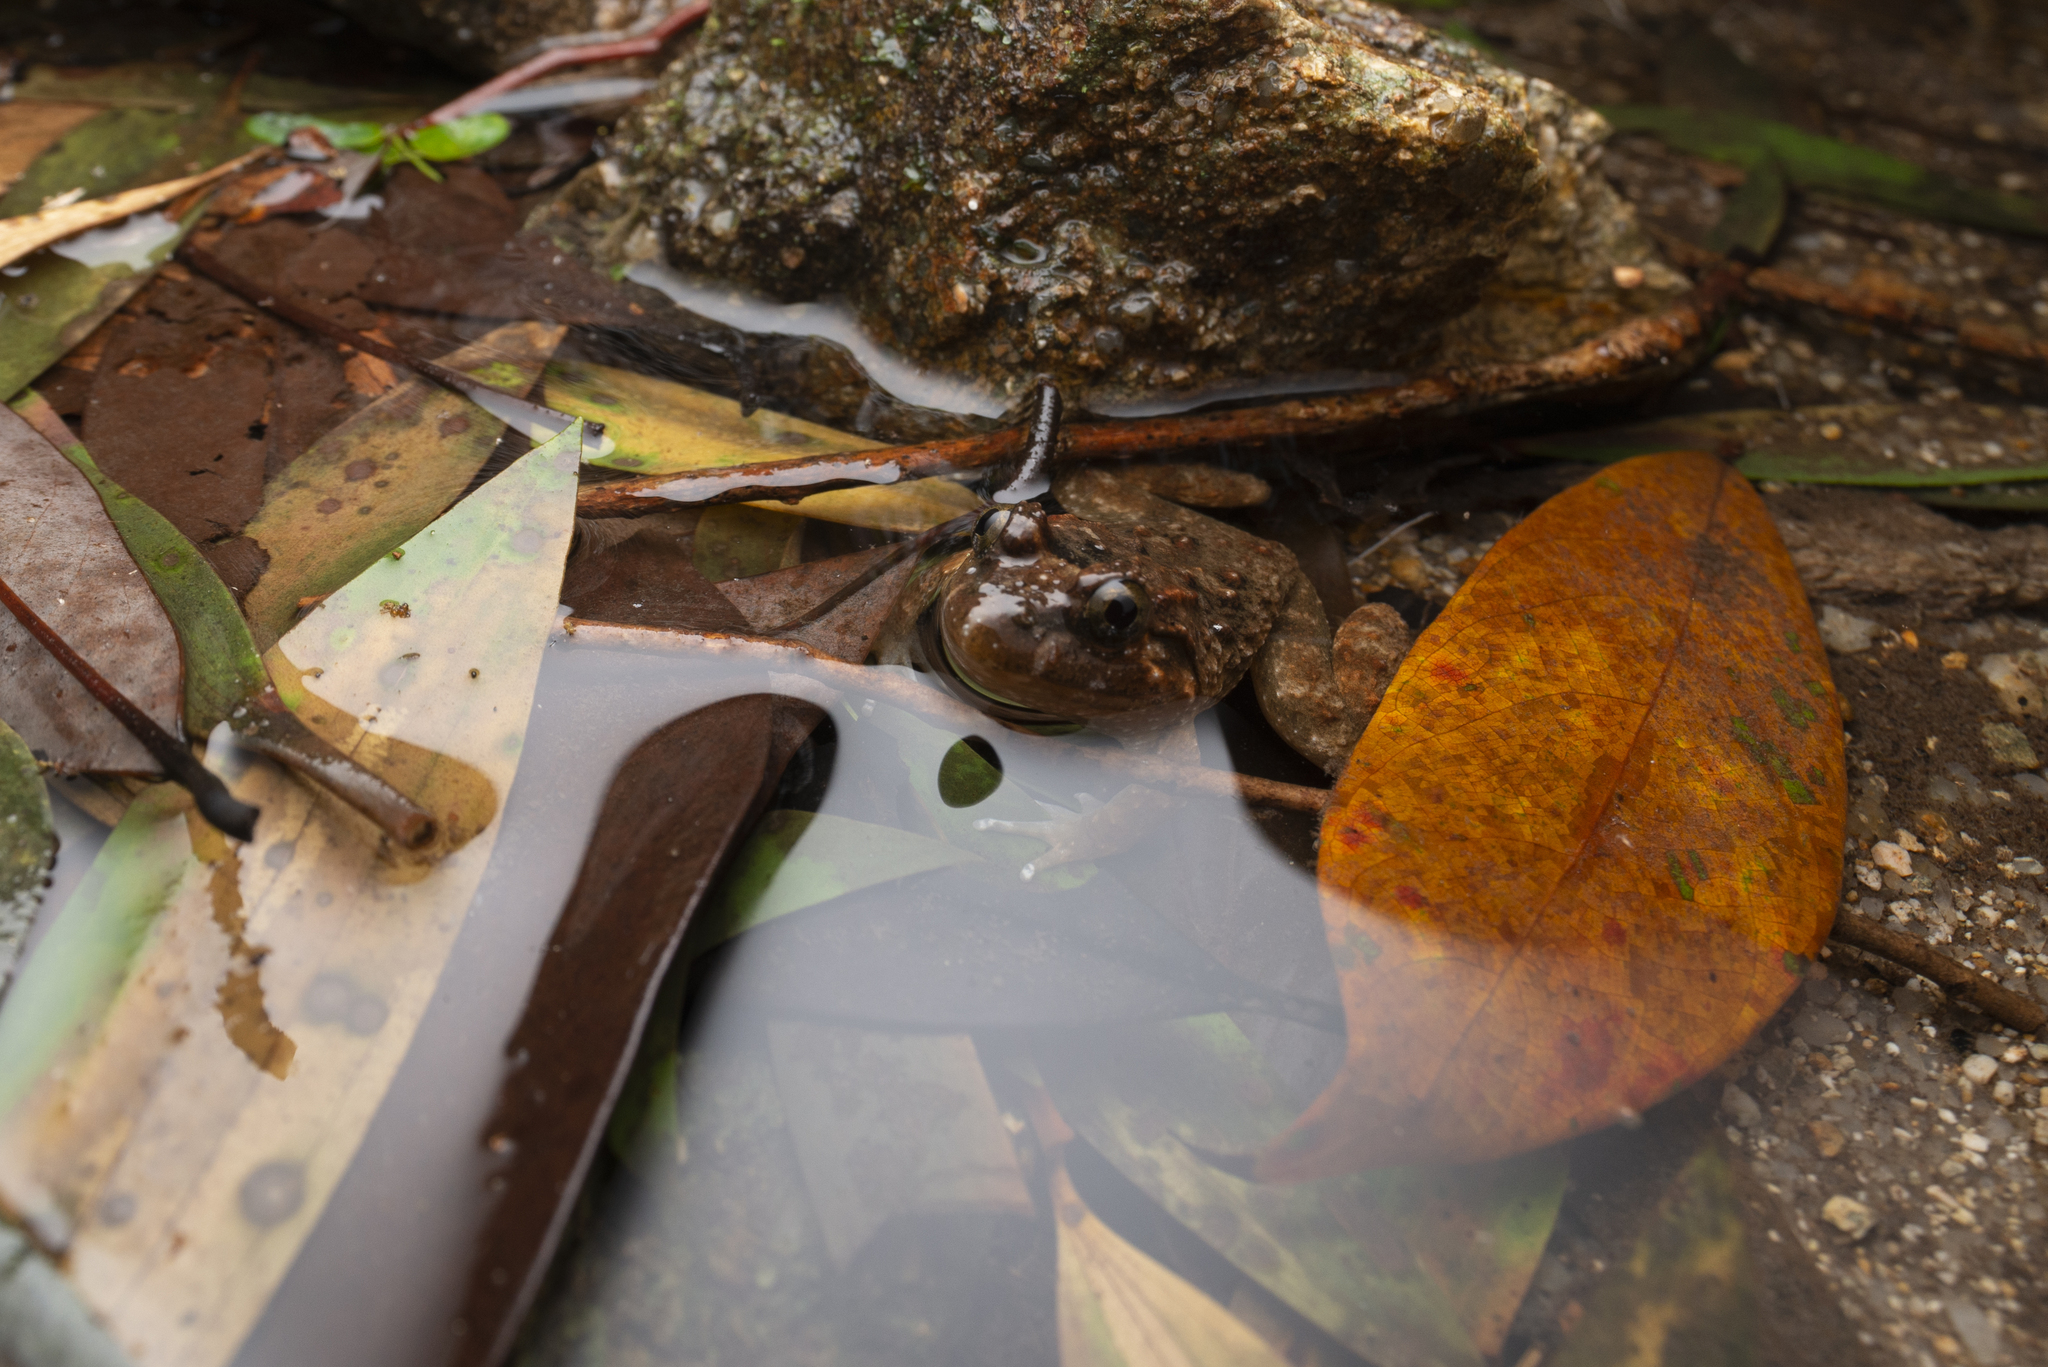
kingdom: Animalia
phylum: Chordata
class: Amphibia
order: Anura
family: Dicroglossidae
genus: Limnonectes
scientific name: Limnonectes fujianensis
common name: Fujian large-headed frog
